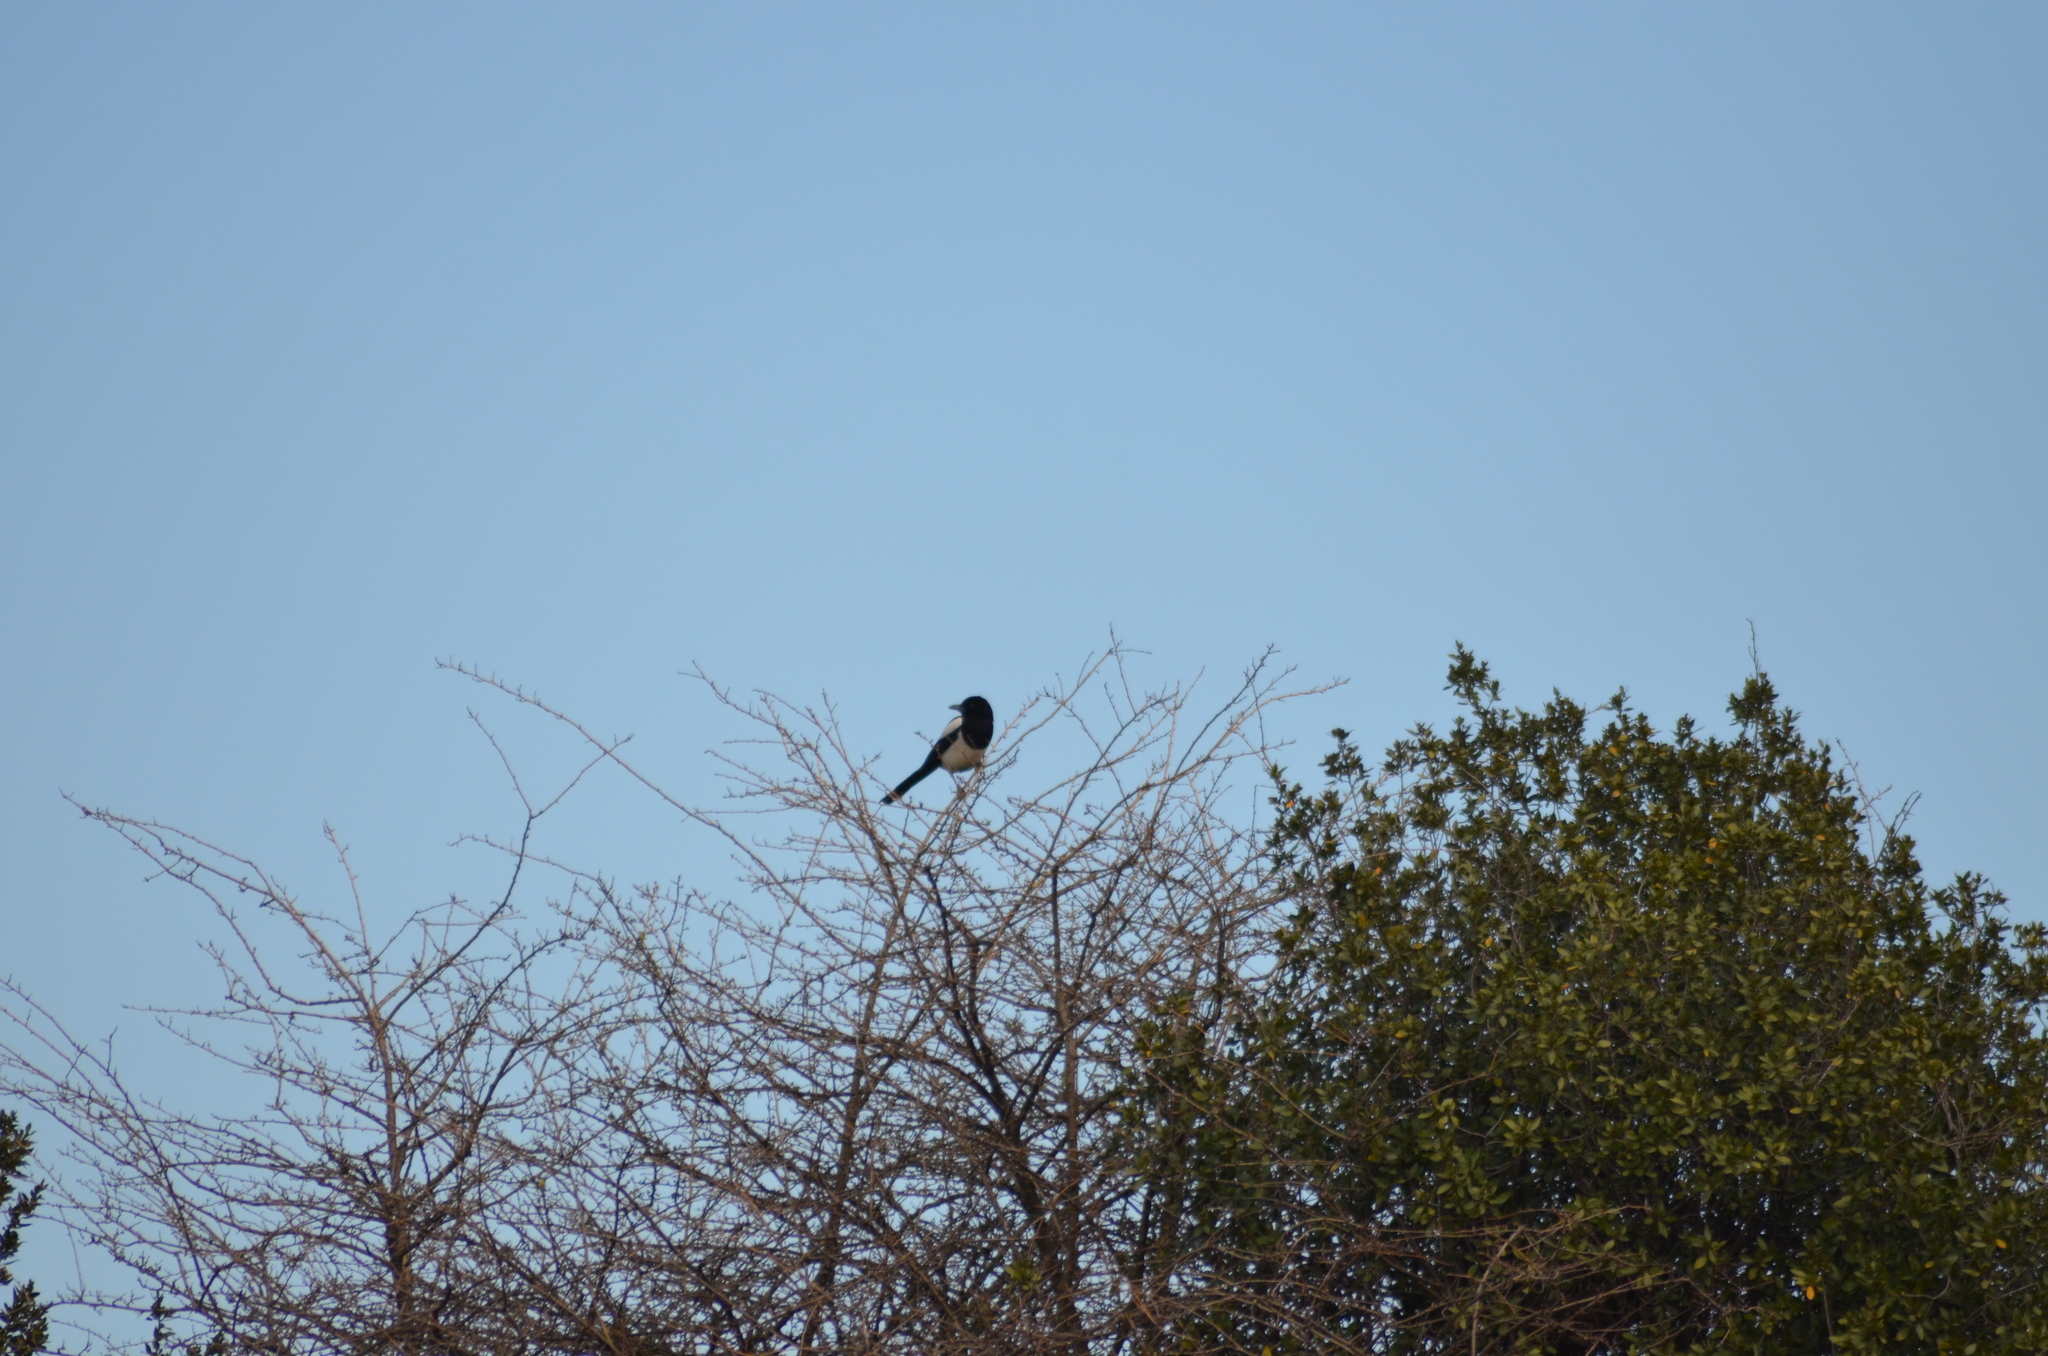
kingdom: Animalia
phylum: Chordata
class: Aves
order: Passeriformes
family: Corvidae
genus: Pica
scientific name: Pica pica
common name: Eurasian magpie
